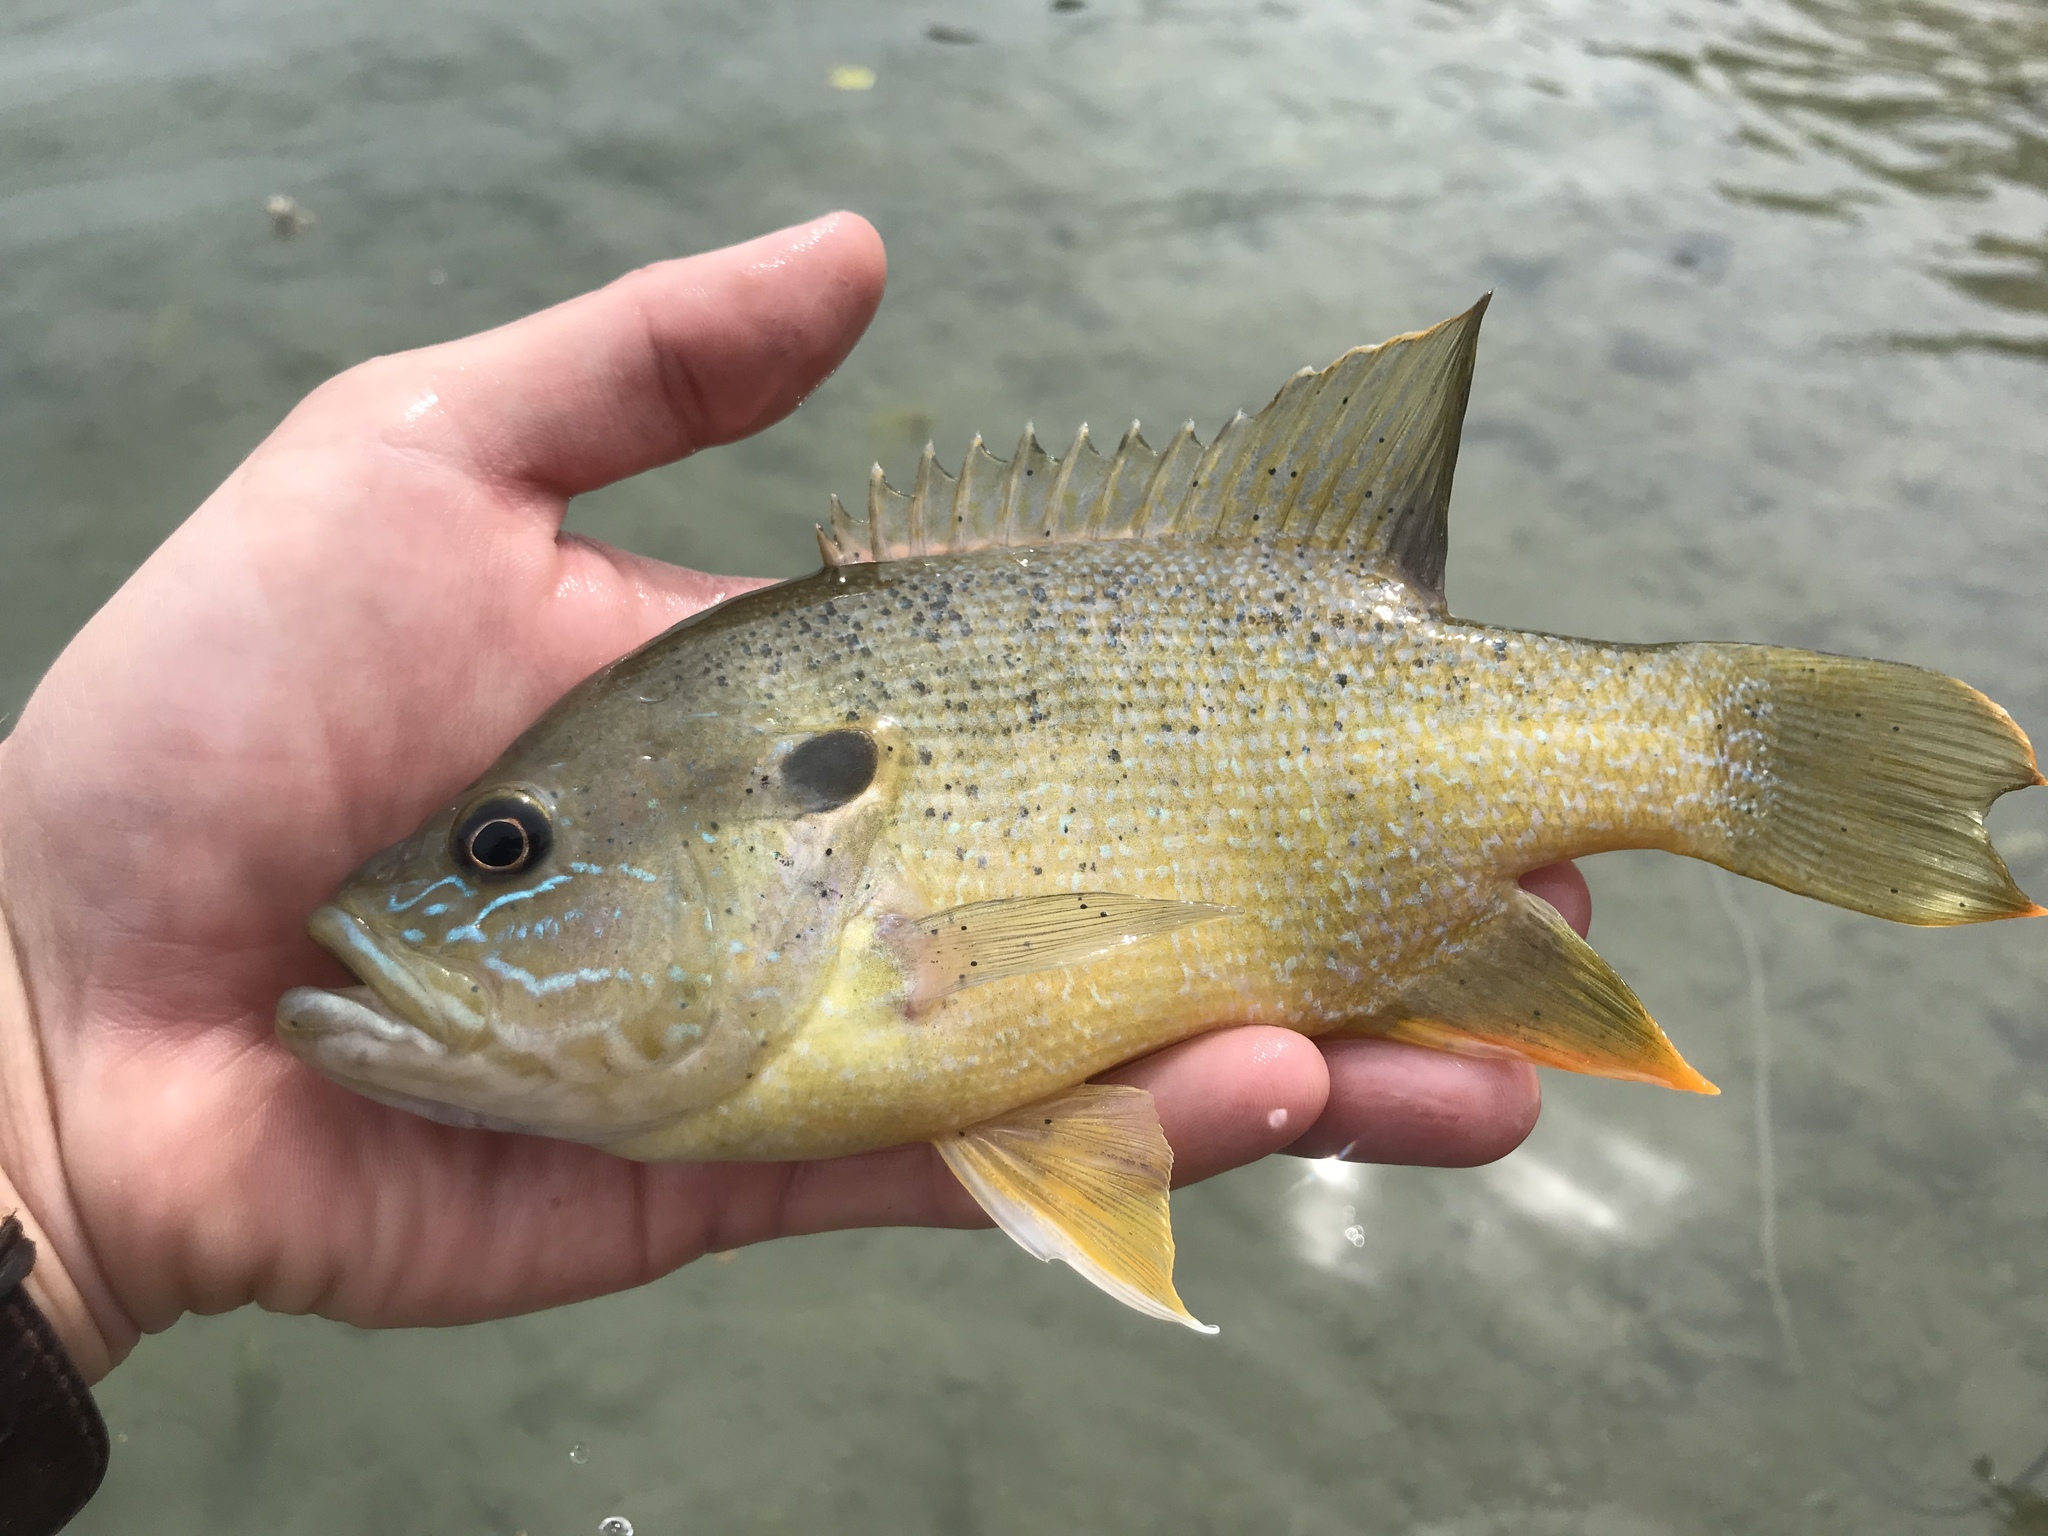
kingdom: Animalia
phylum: Chordata
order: Perciformes
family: Centrarchidae
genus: Lepomis
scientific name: Lepomis cyanellus
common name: Green sunfish
